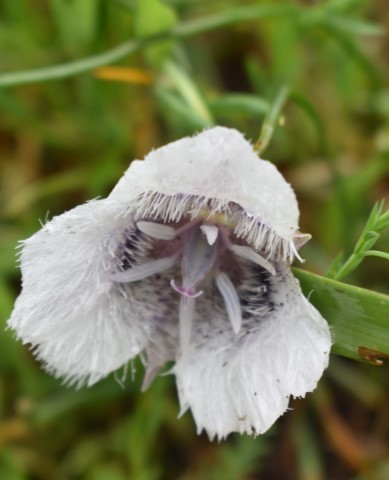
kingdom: Plantae
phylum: Tracheophyta
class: Liliopsida
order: Liliales
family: Liliaceae
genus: Calochortus
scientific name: Calochortus tolmiei
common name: Pussy-ears
